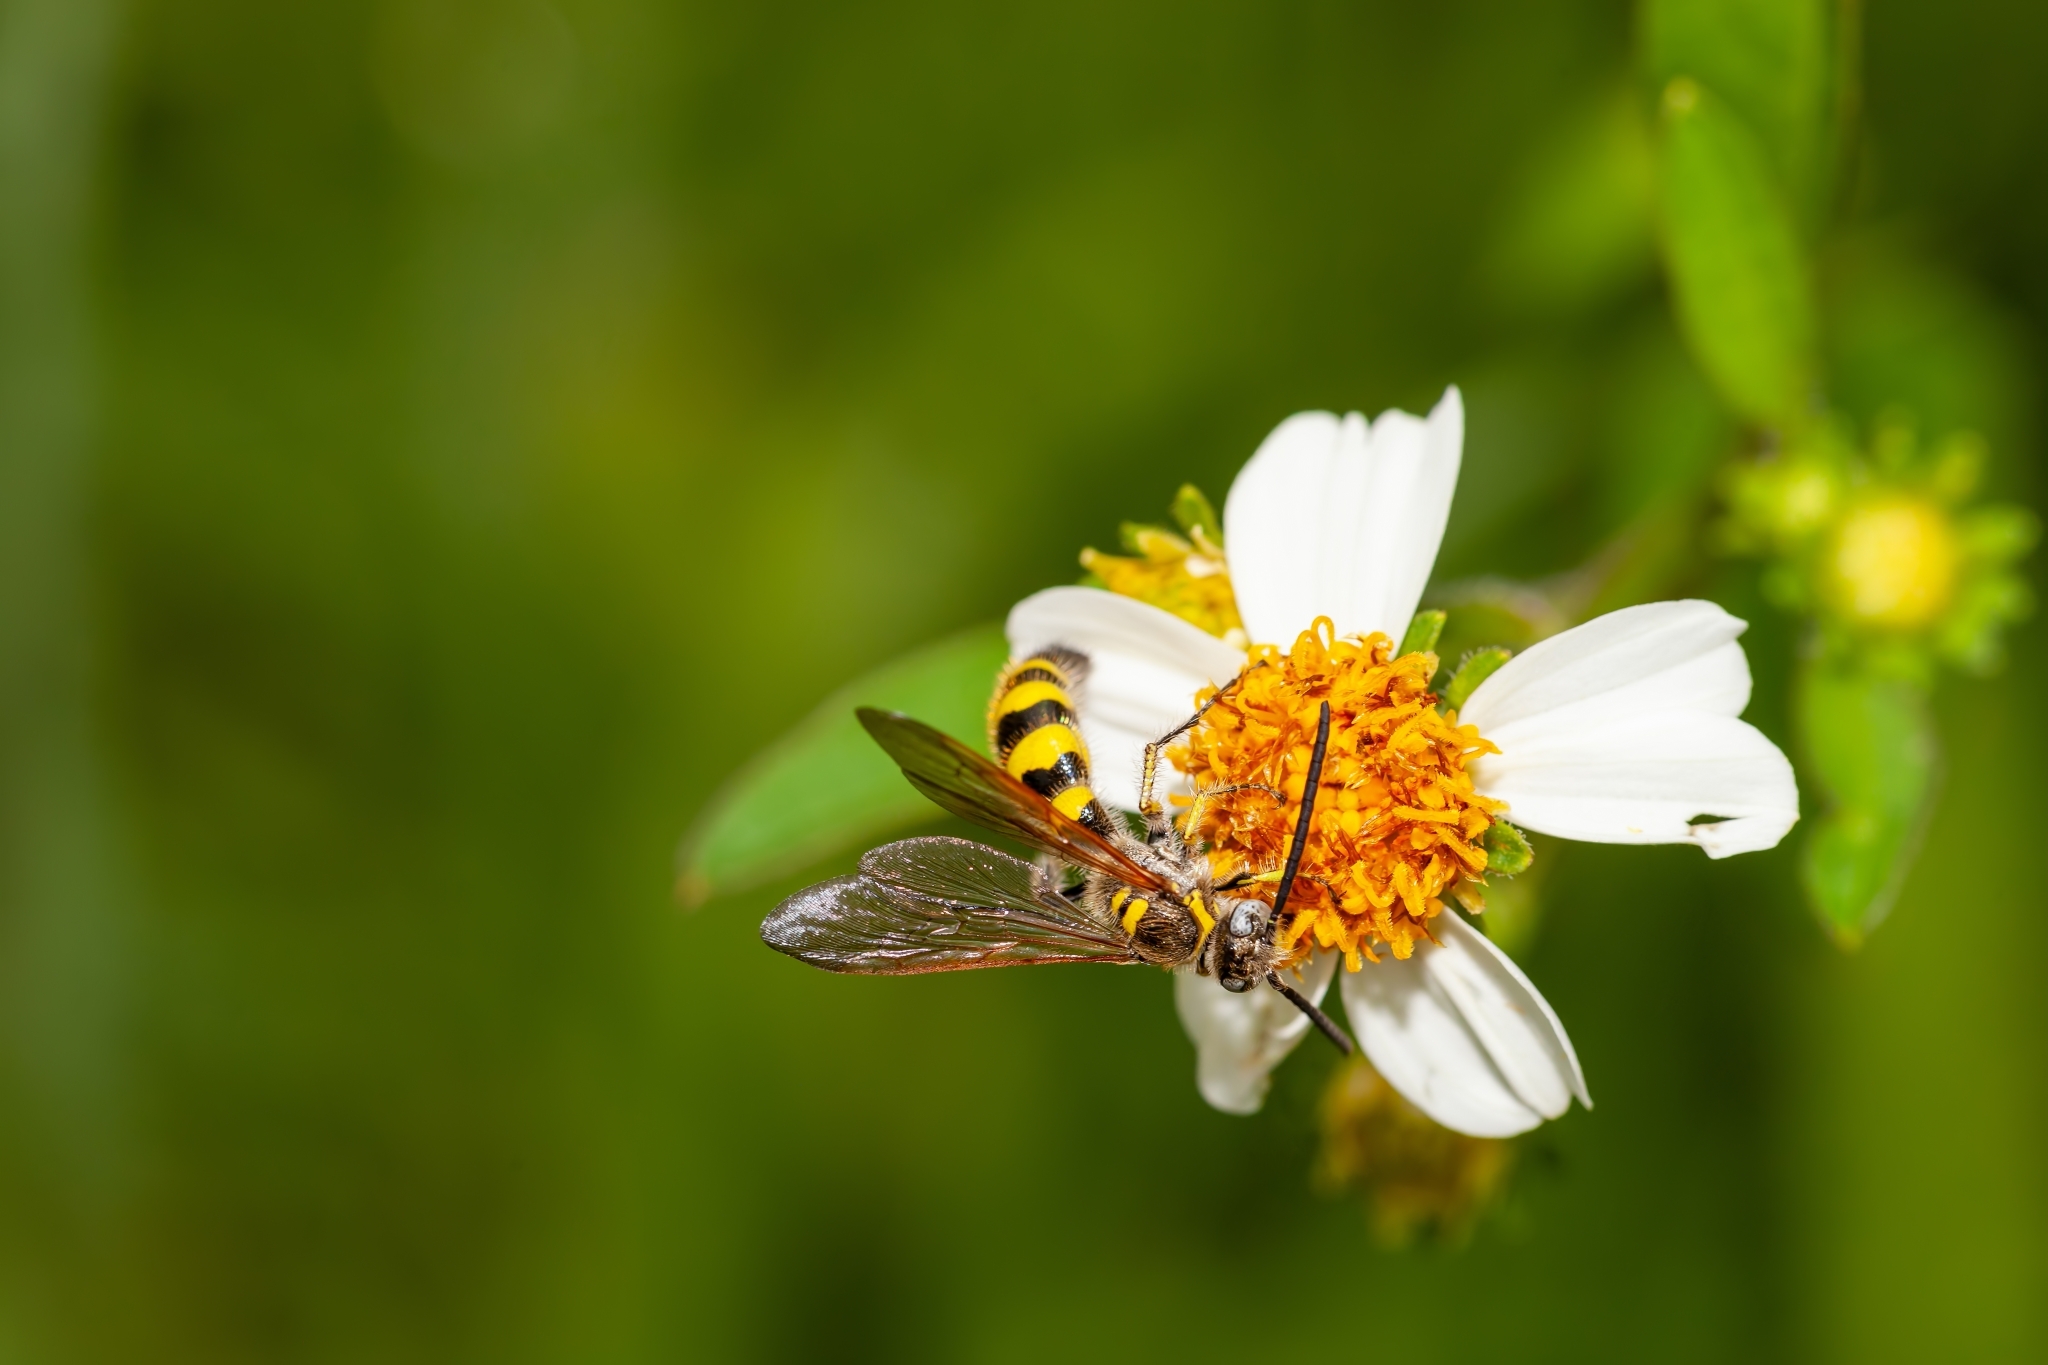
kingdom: Animalia
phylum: Arthropoda
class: Insecta
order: Hymenoptera
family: Scoliidae
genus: Dielis
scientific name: Dielis
